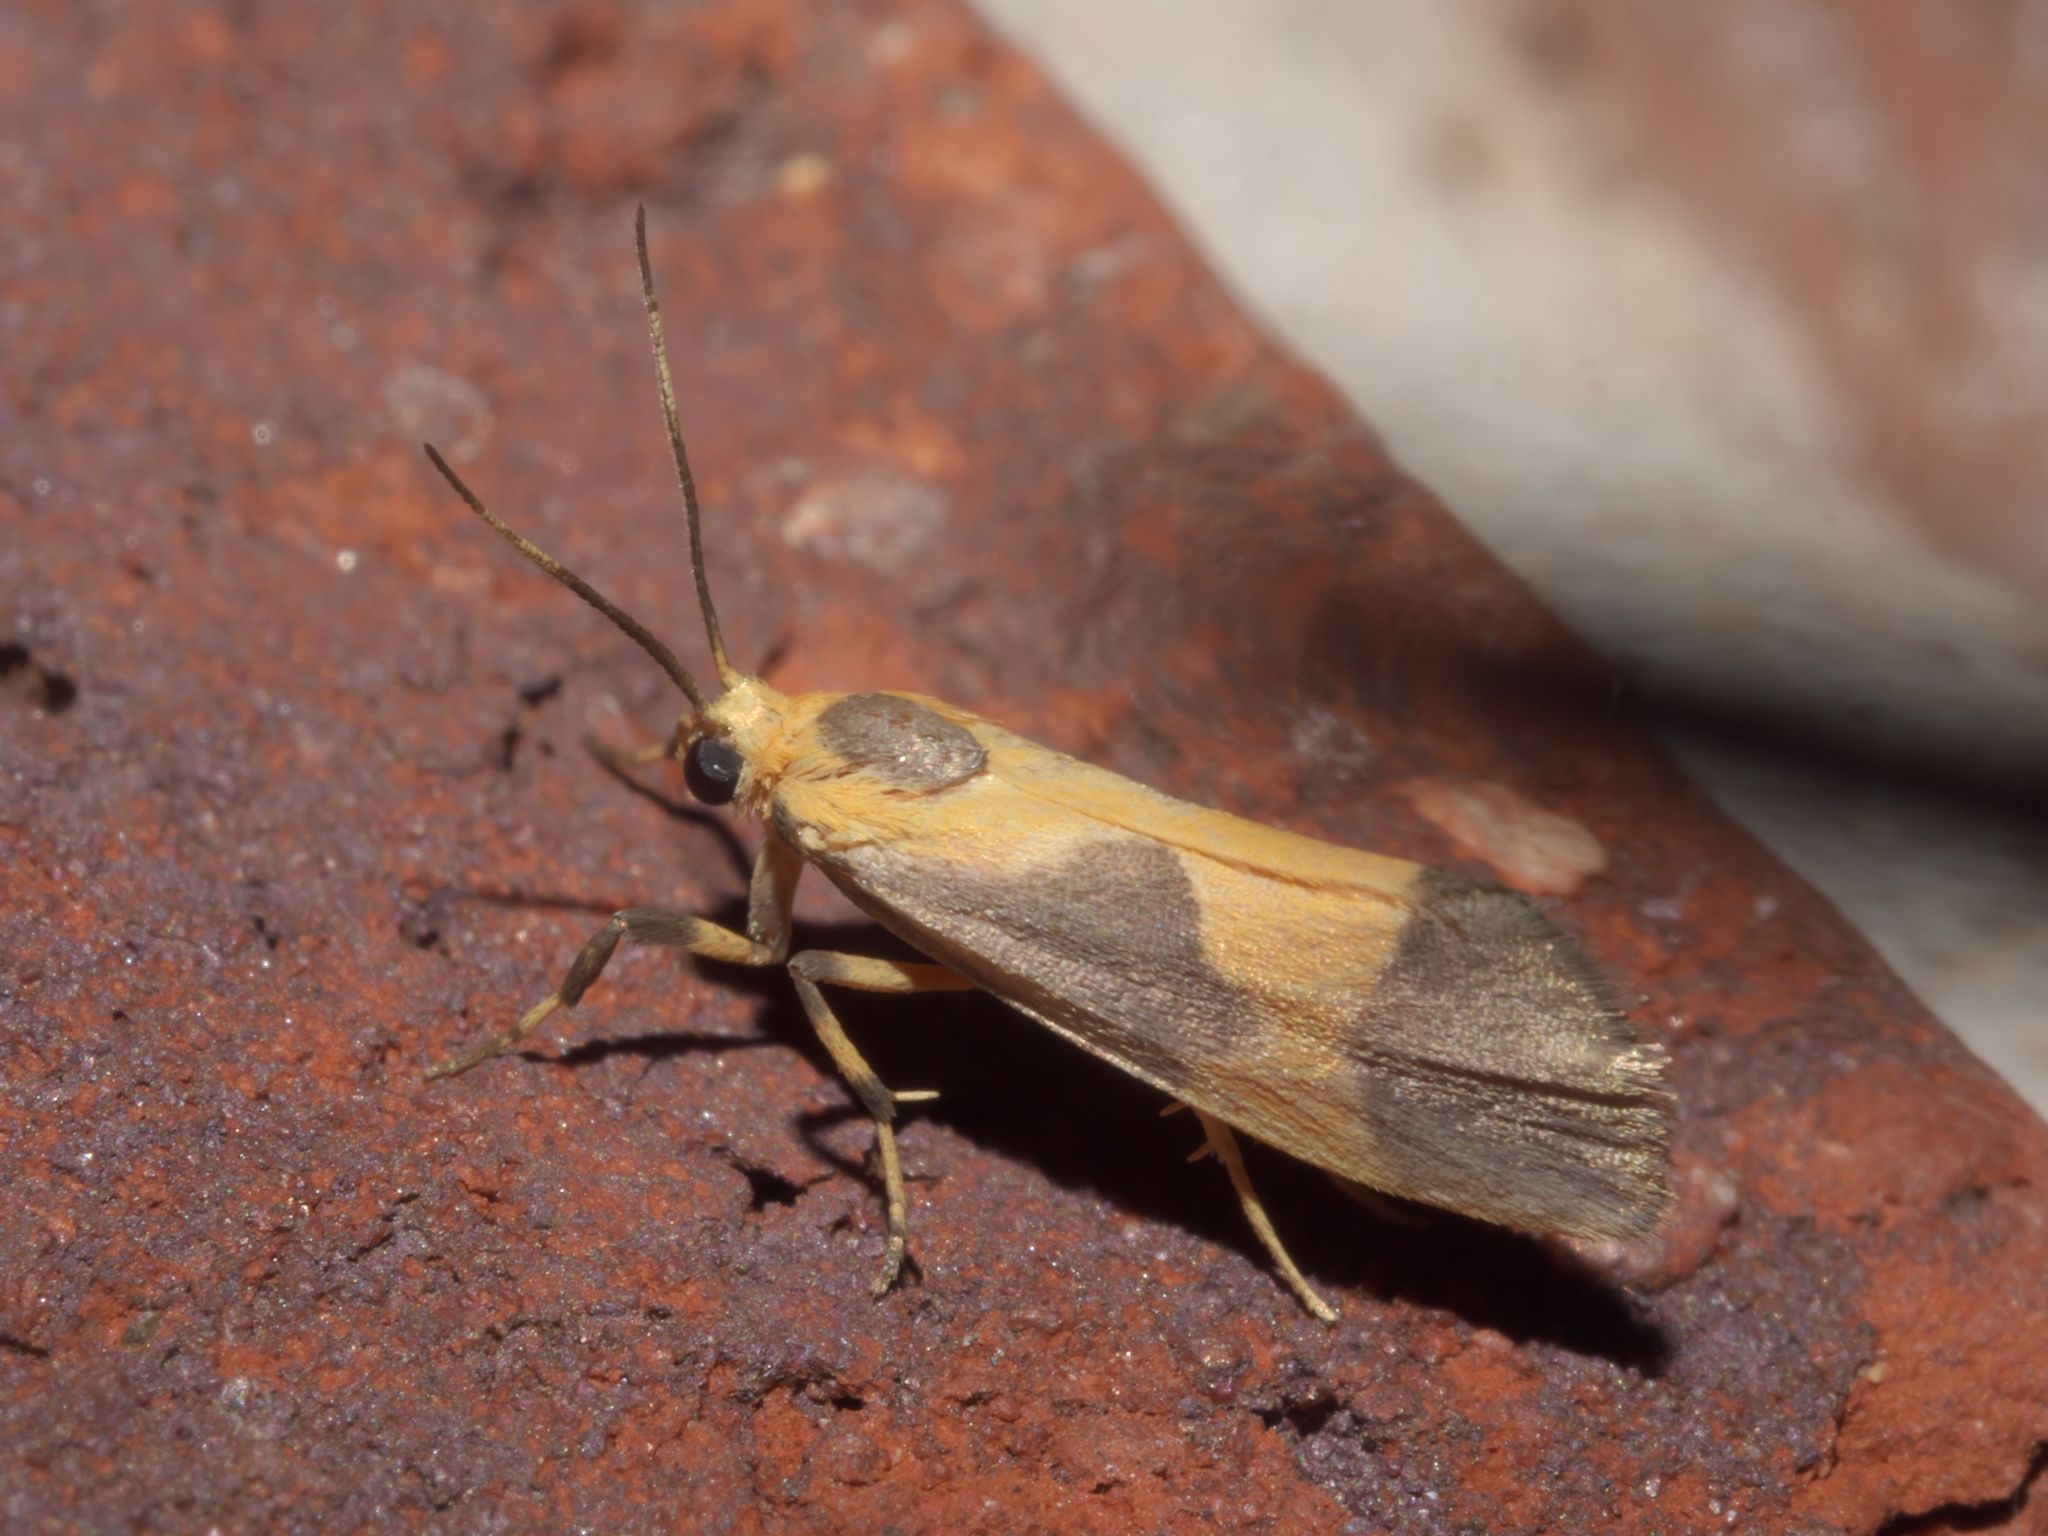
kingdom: Animalia
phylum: Arthropoda
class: Insecta
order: Lepidoptera
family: Erebidae
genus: Cisthene
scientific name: Cisthene unifascia
